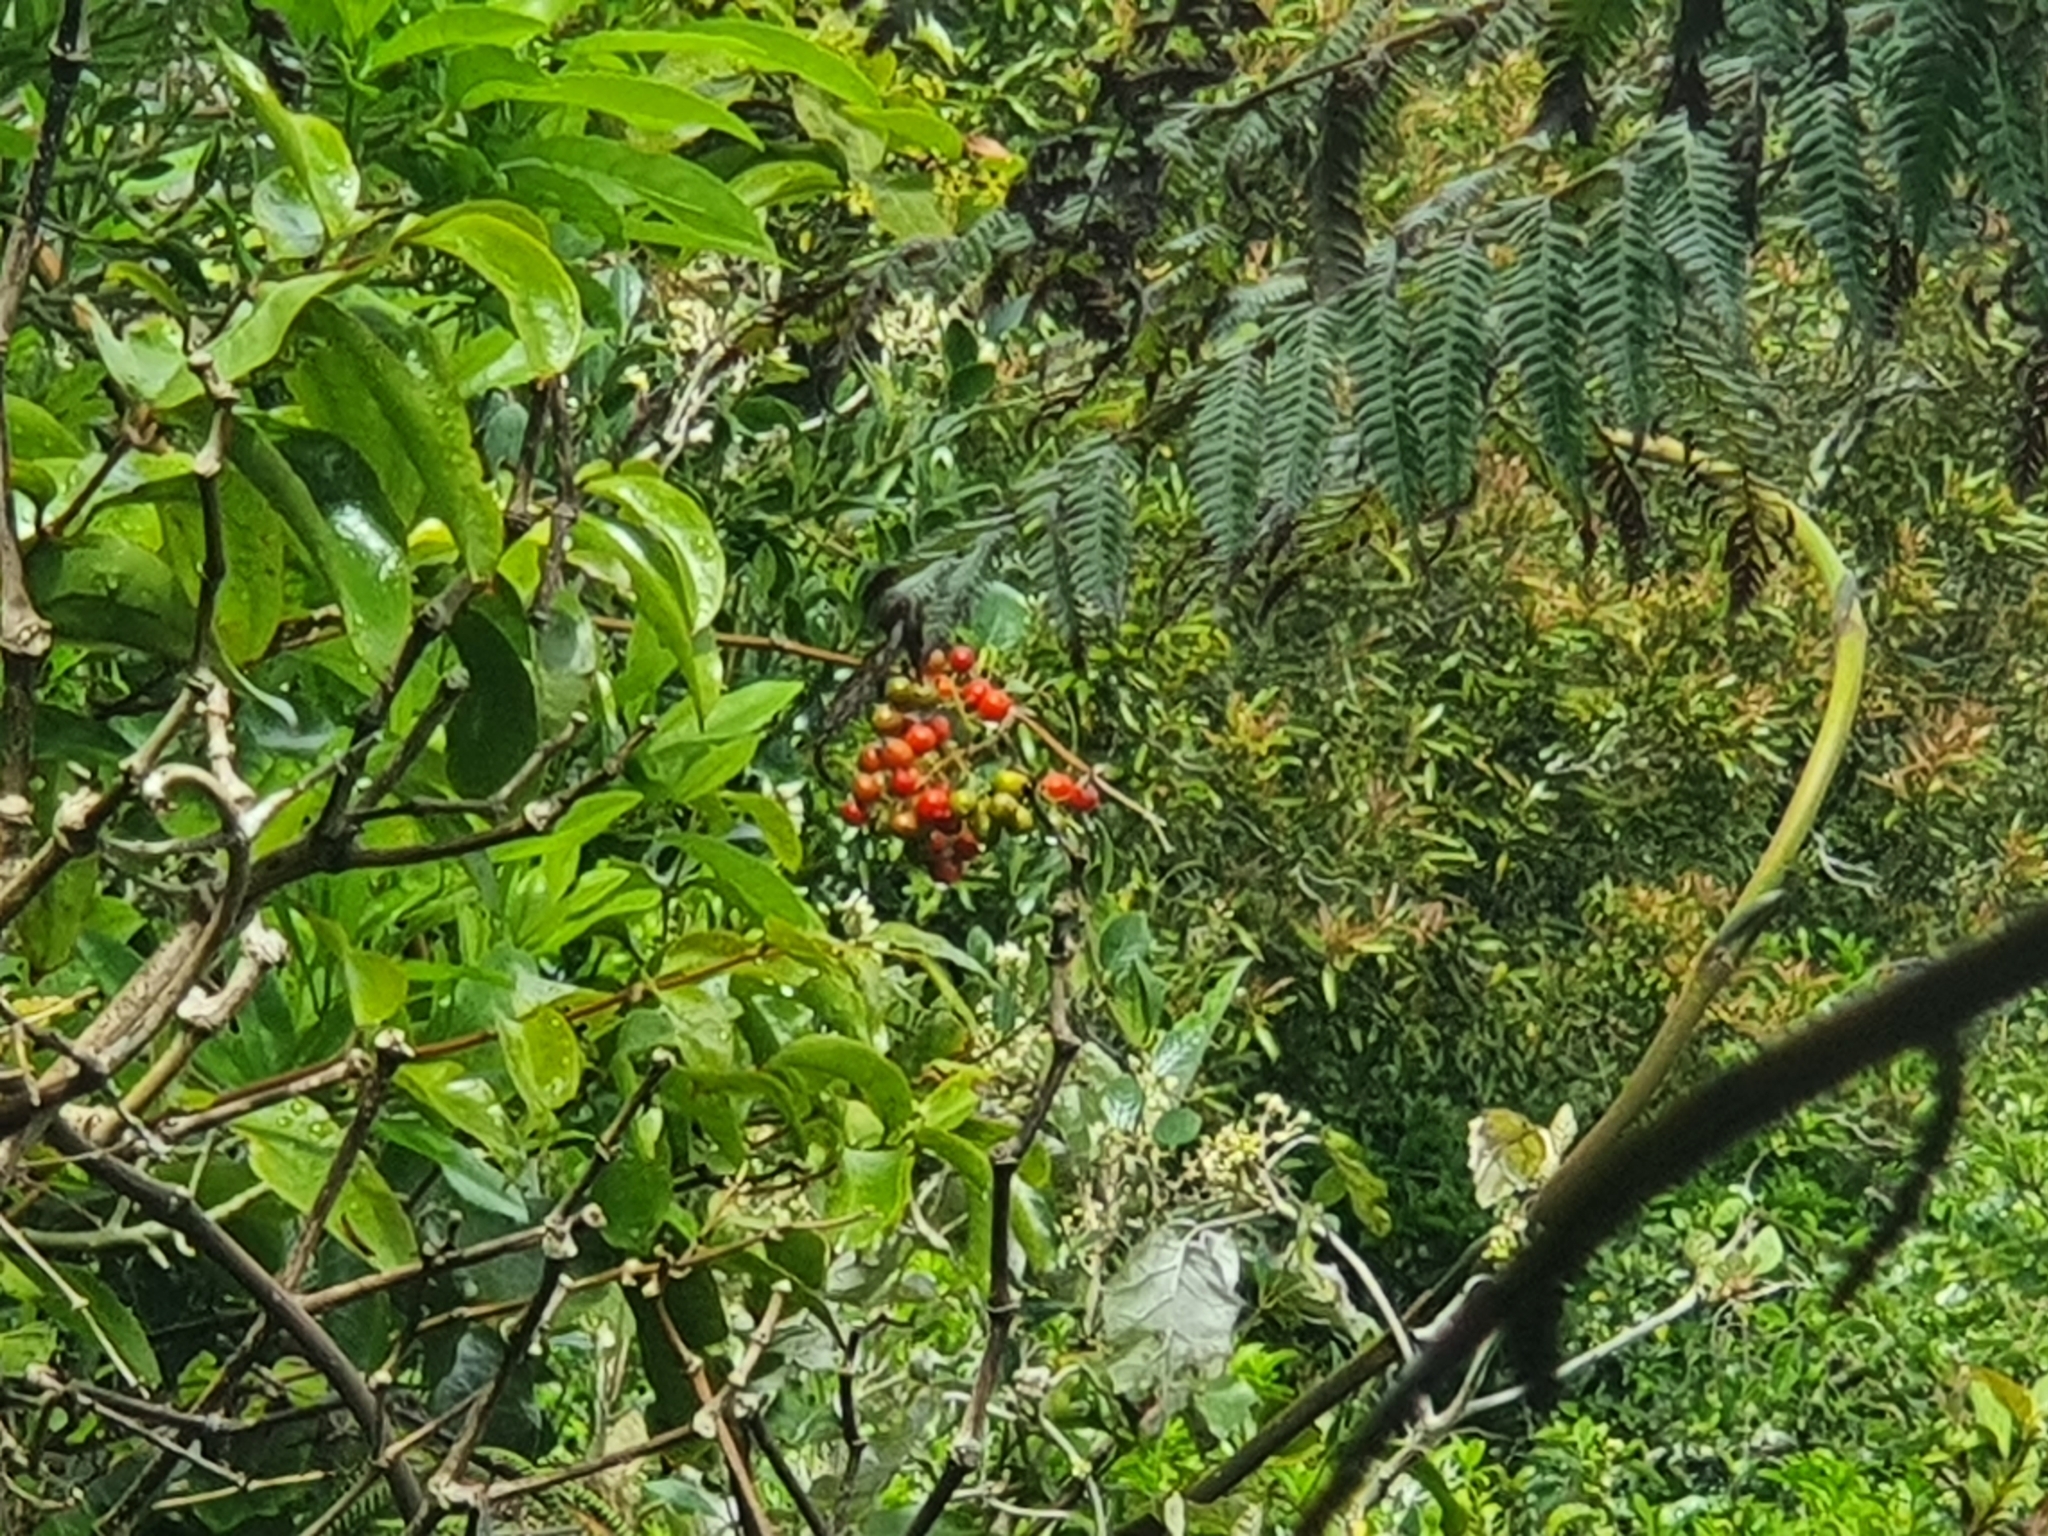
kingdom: Plantae
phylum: Tracheophyta
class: Liliopsida
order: Liliales
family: Ripogonaceae
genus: Ripogonum
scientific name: Ripogonum scandens
